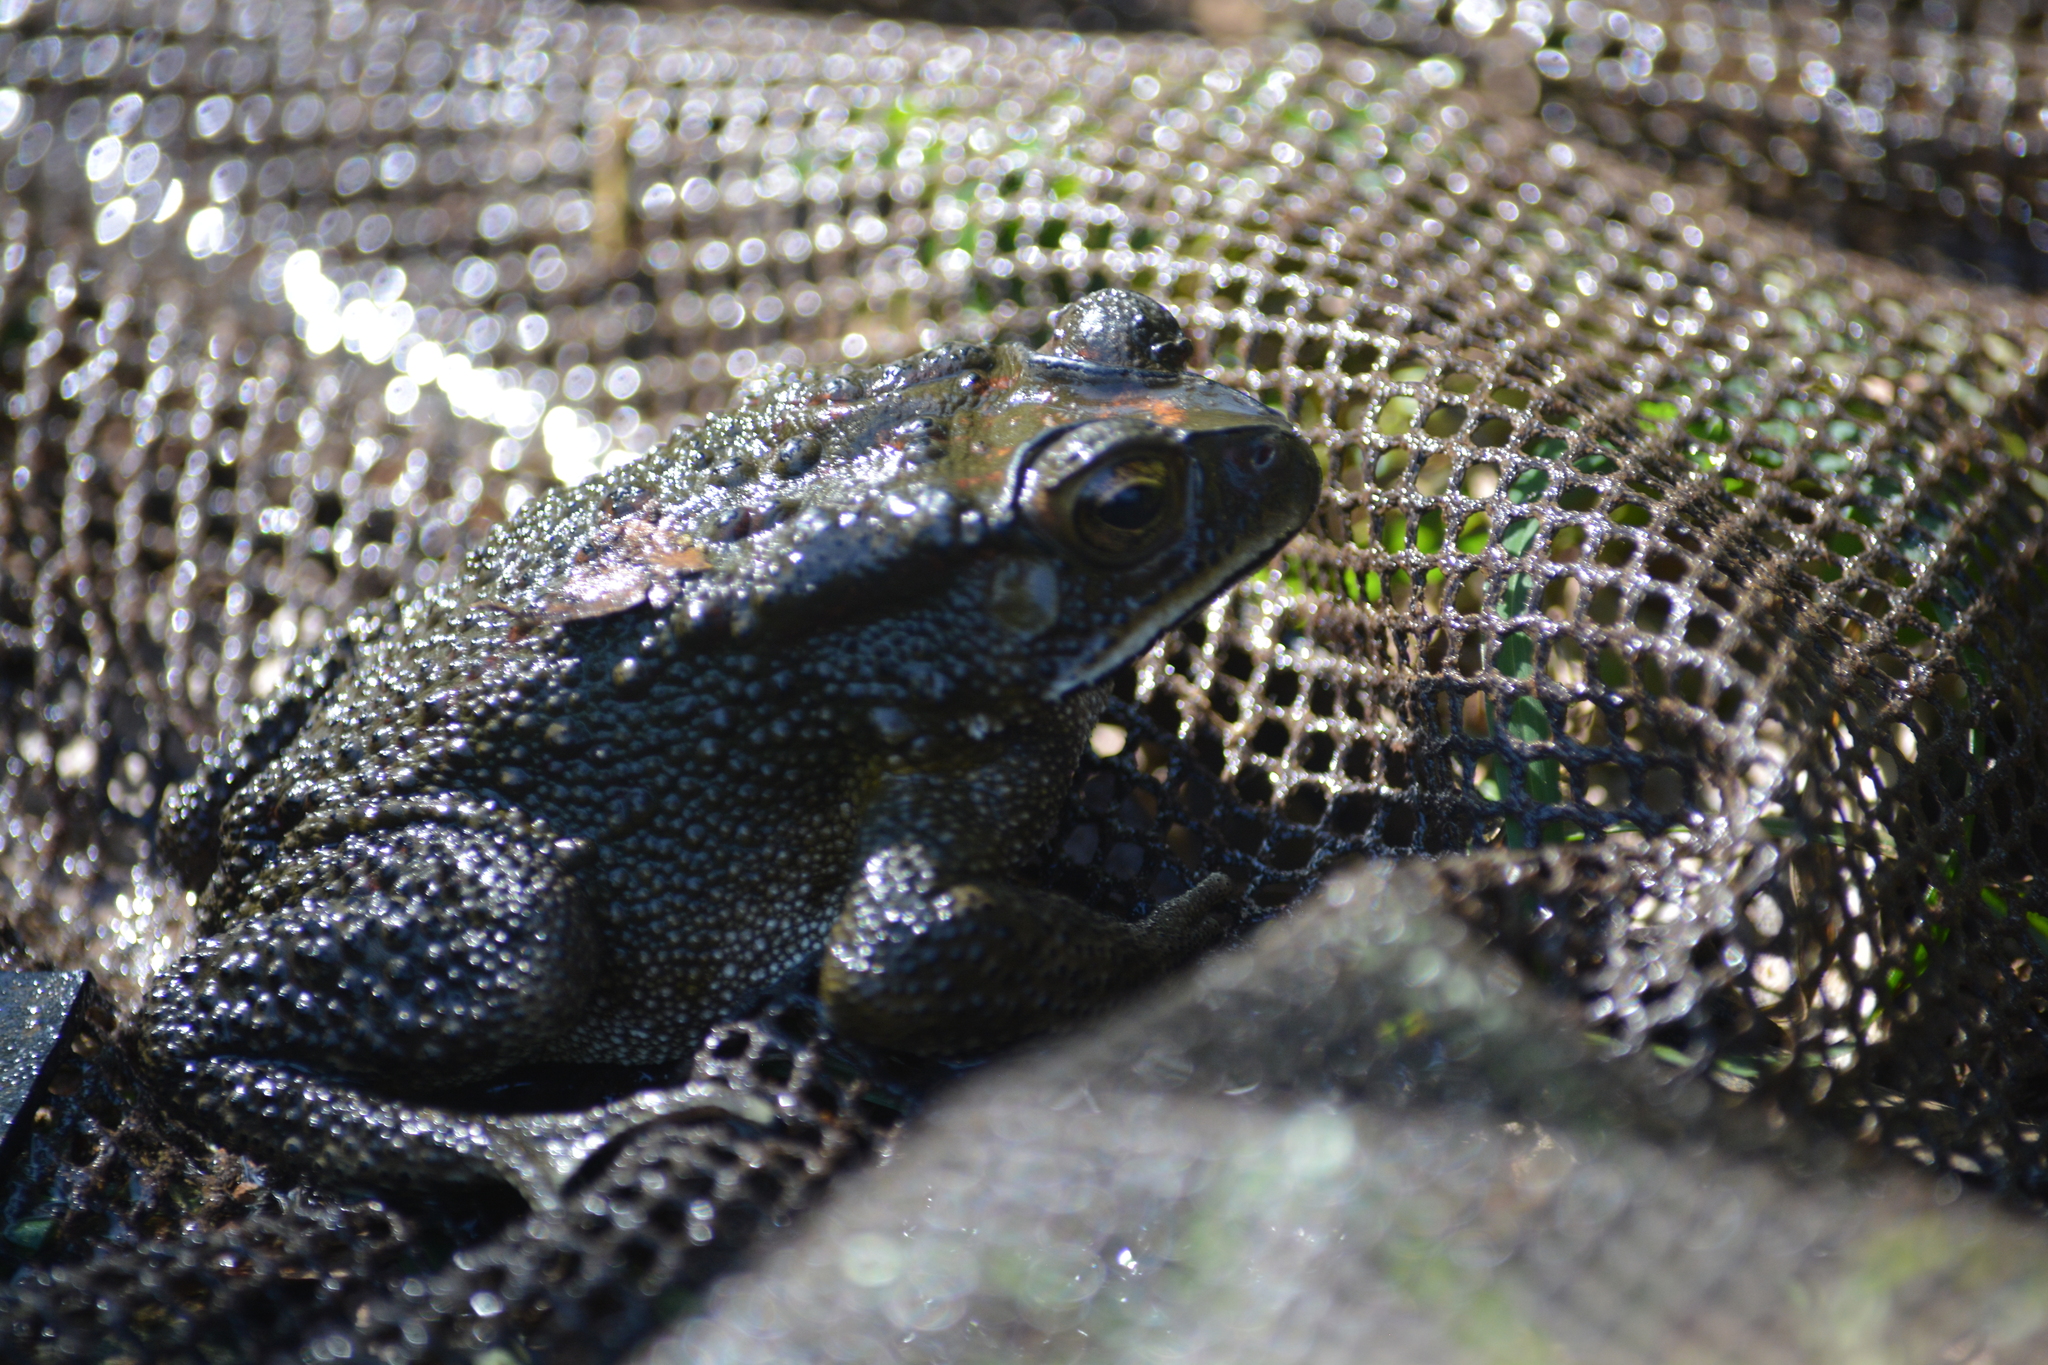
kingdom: Animalia
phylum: Chordata
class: Amphibia
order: Anura
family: Bufonidae
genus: Duttaphrynus
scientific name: Duttaphrynus melanostictus
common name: Common sunda toad
